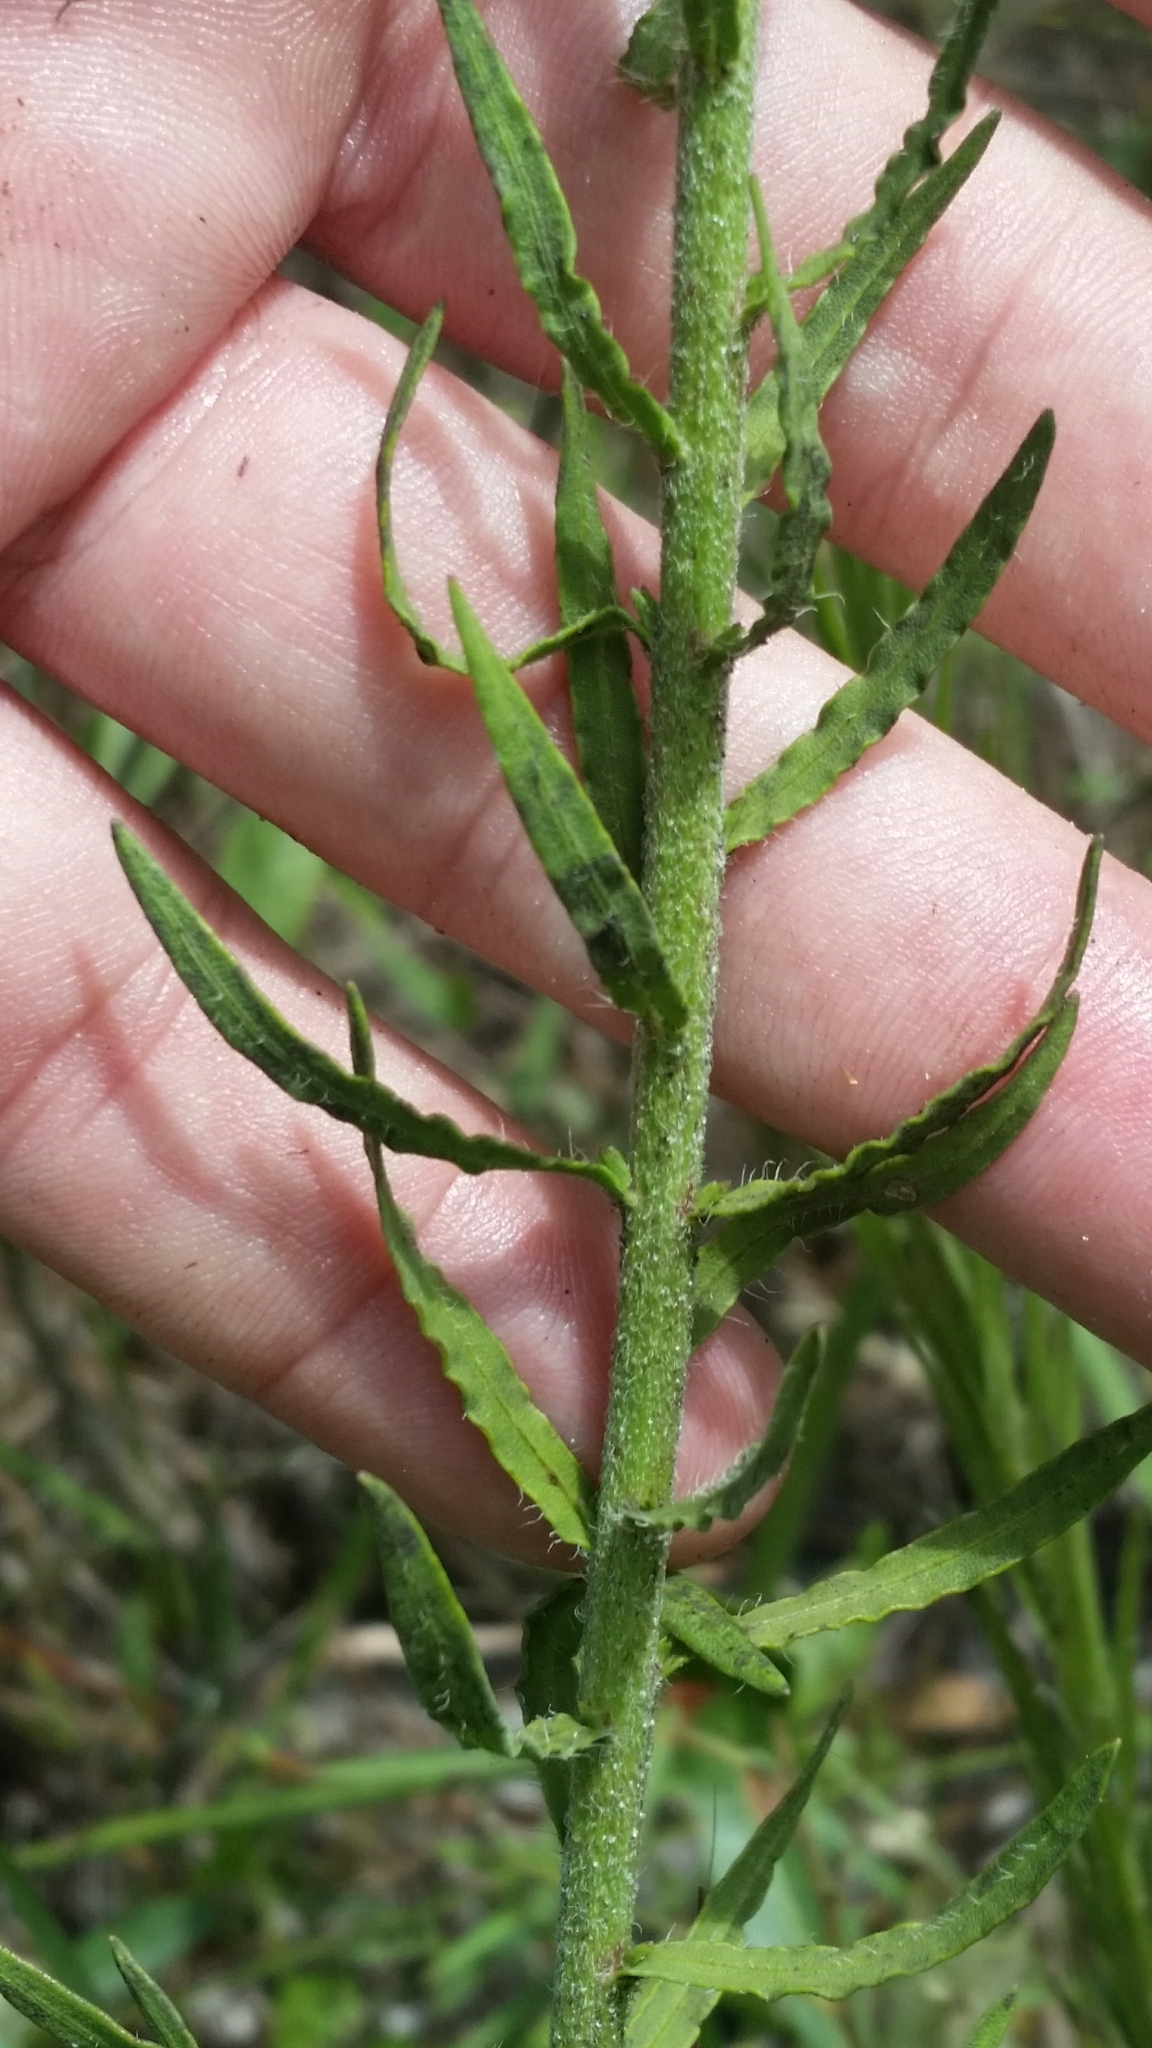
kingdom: Plantae
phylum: Tracheophyta
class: Magnoliopsida
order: Asterales
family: Asteraceae
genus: Liatris
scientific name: Liatris gracilis
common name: Slender gayfeather
